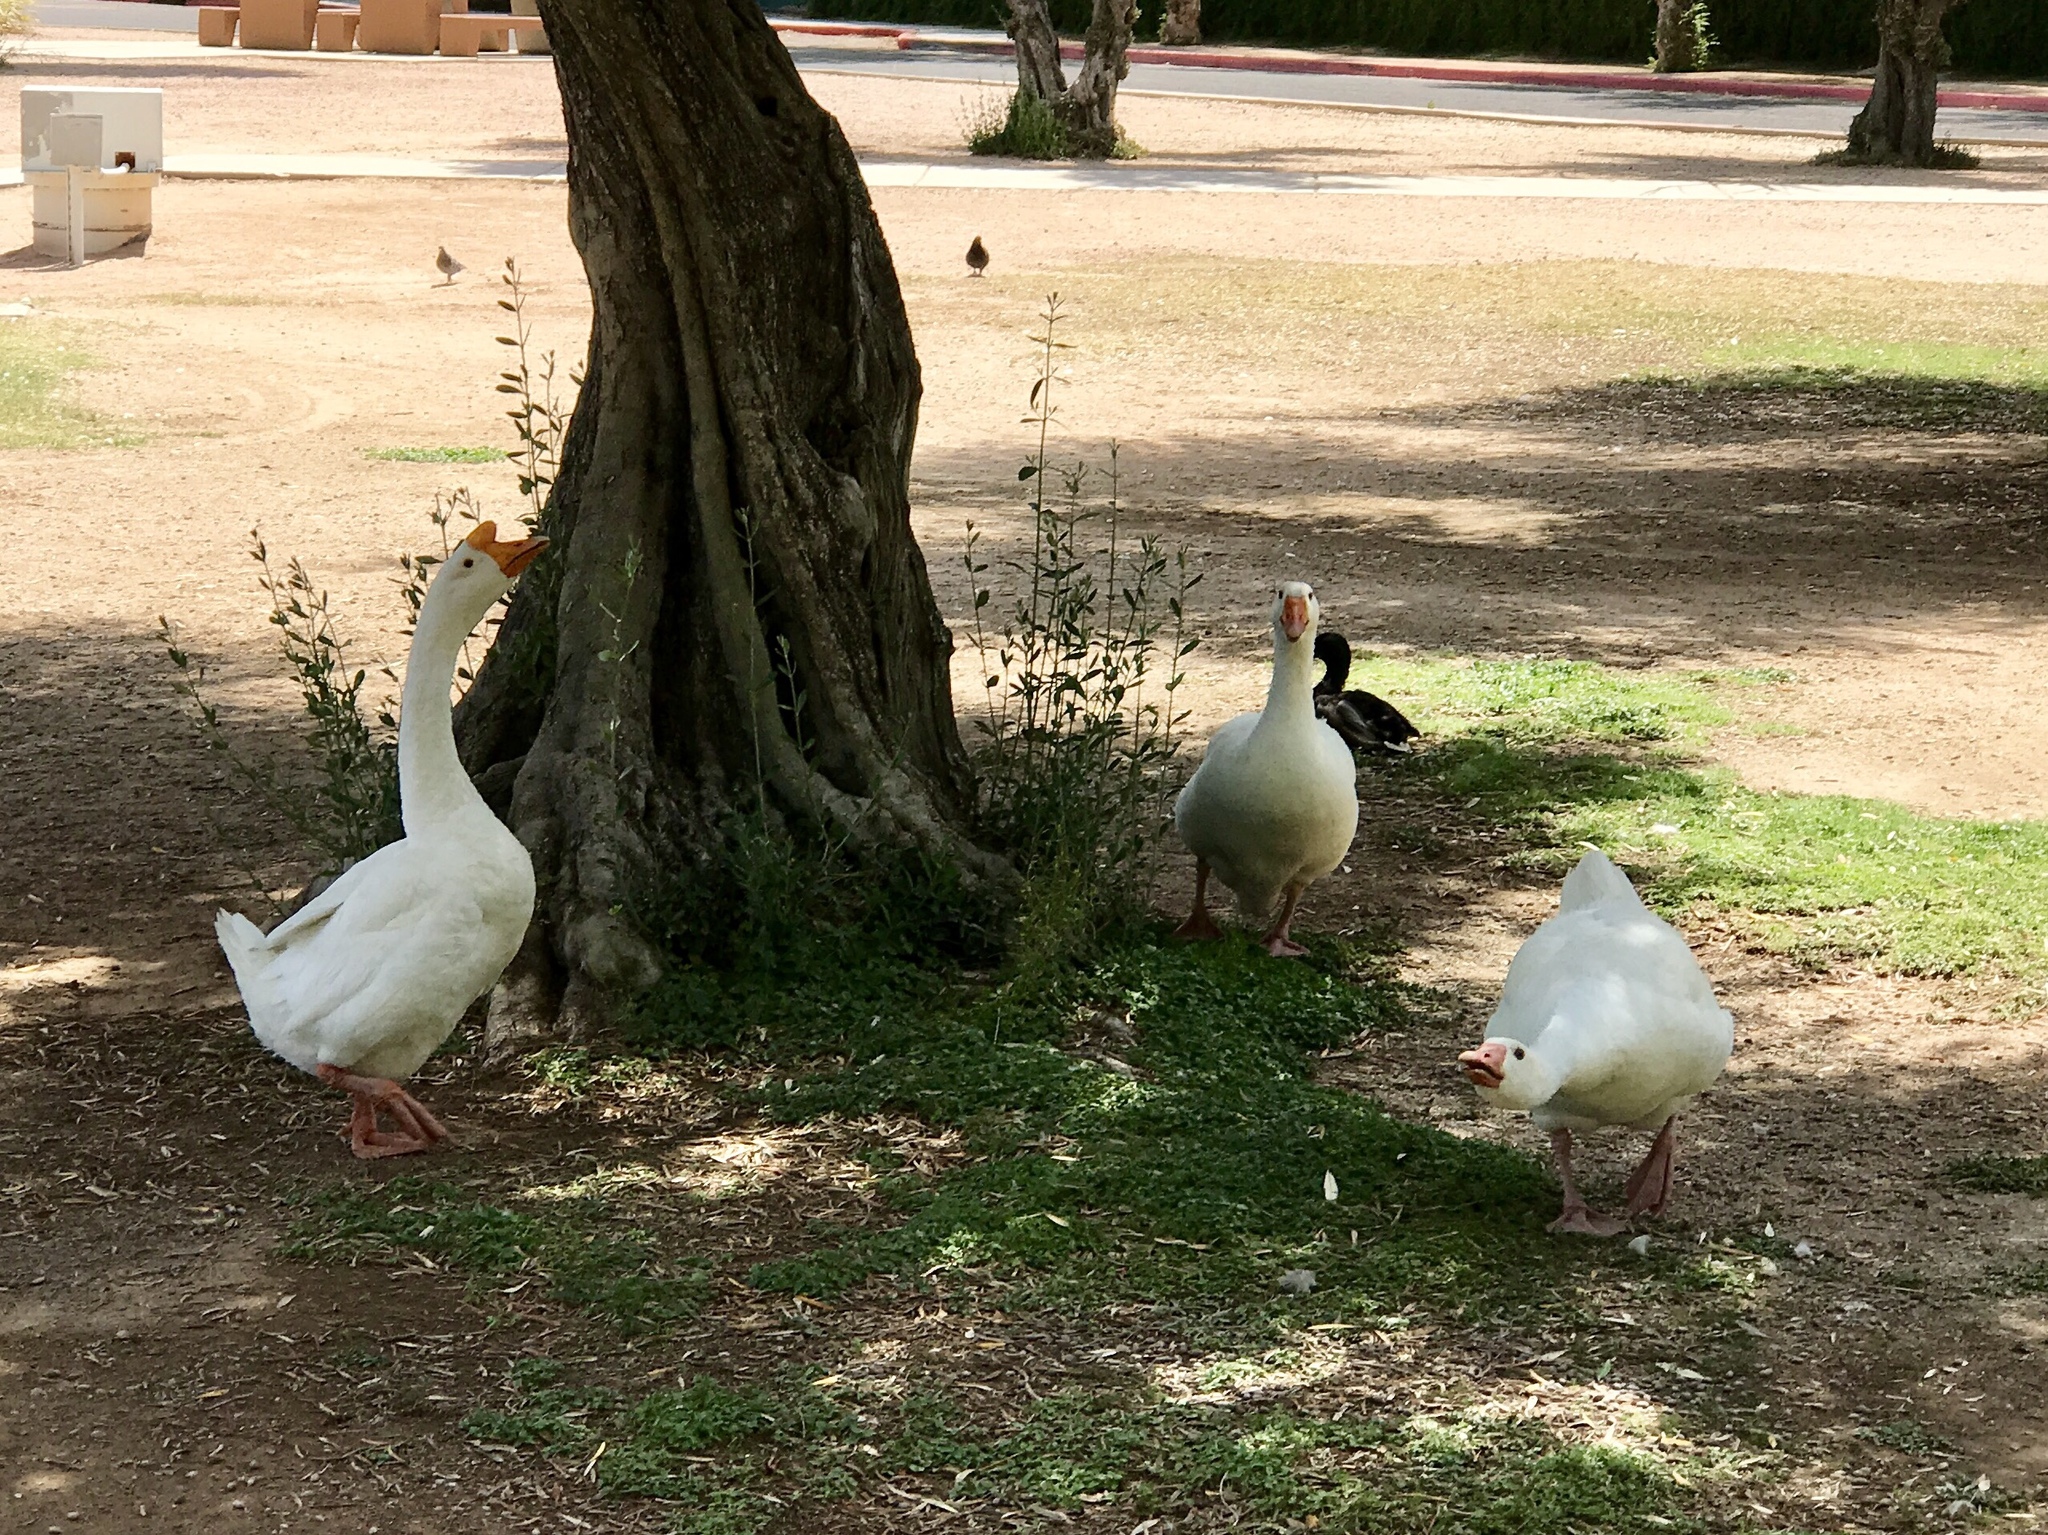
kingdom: Animalia
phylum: Chordata
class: Aves
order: Anseriformes
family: Anatidae
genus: Anser
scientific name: Anser anser
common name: Greylag goose
